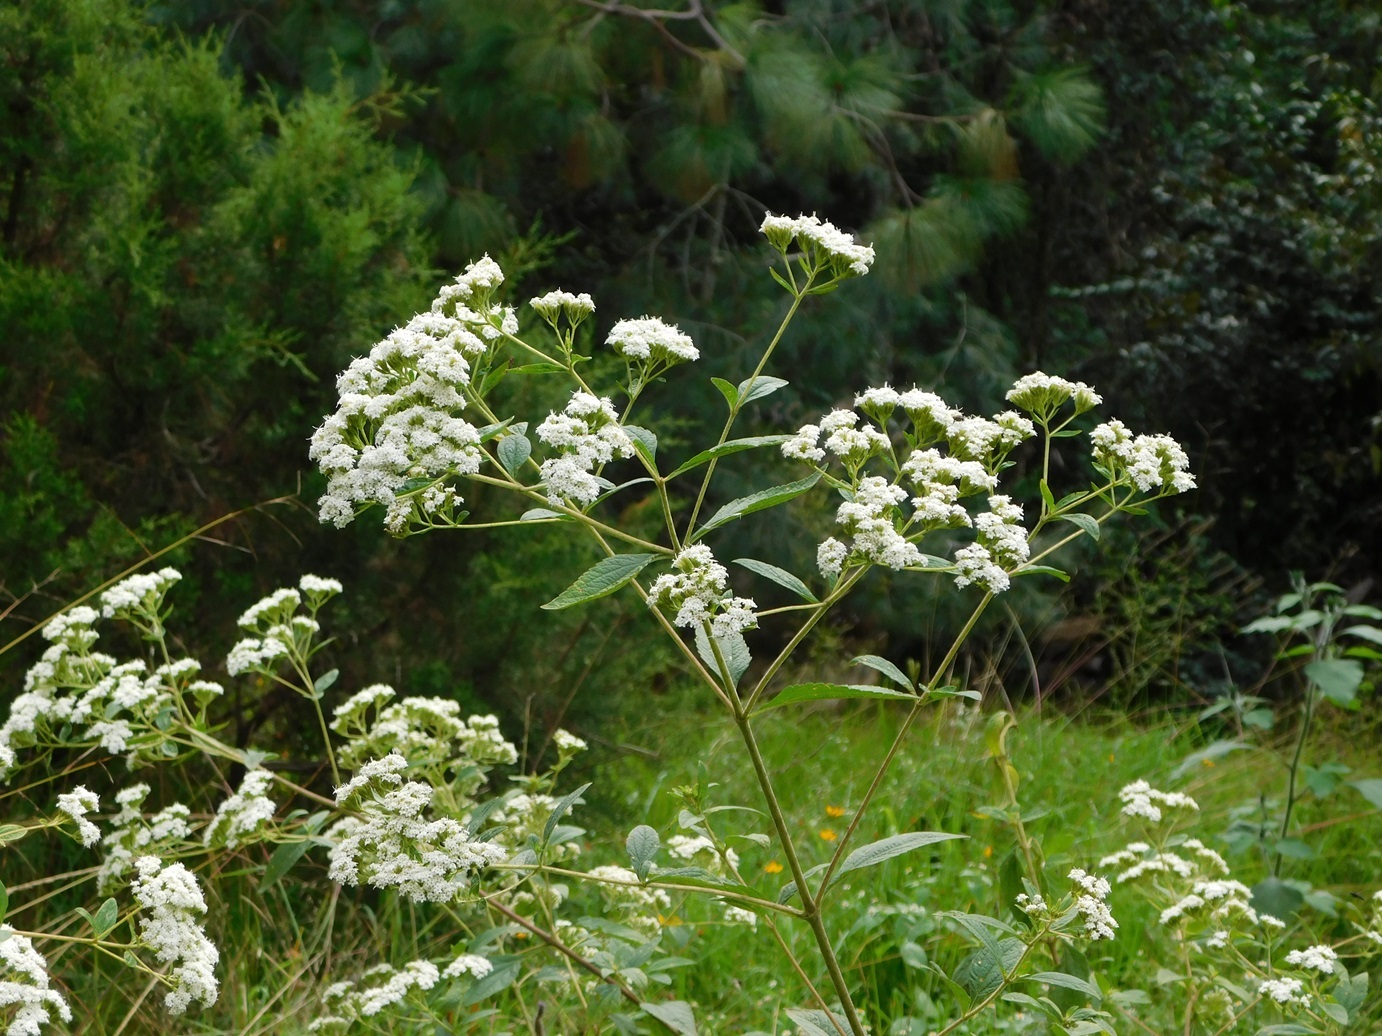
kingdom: Plantae
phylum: Tracheophyta
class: Magnoliopsida
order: Asterales
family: Asteraceae
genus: Stevia
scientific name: Stevia ovata
